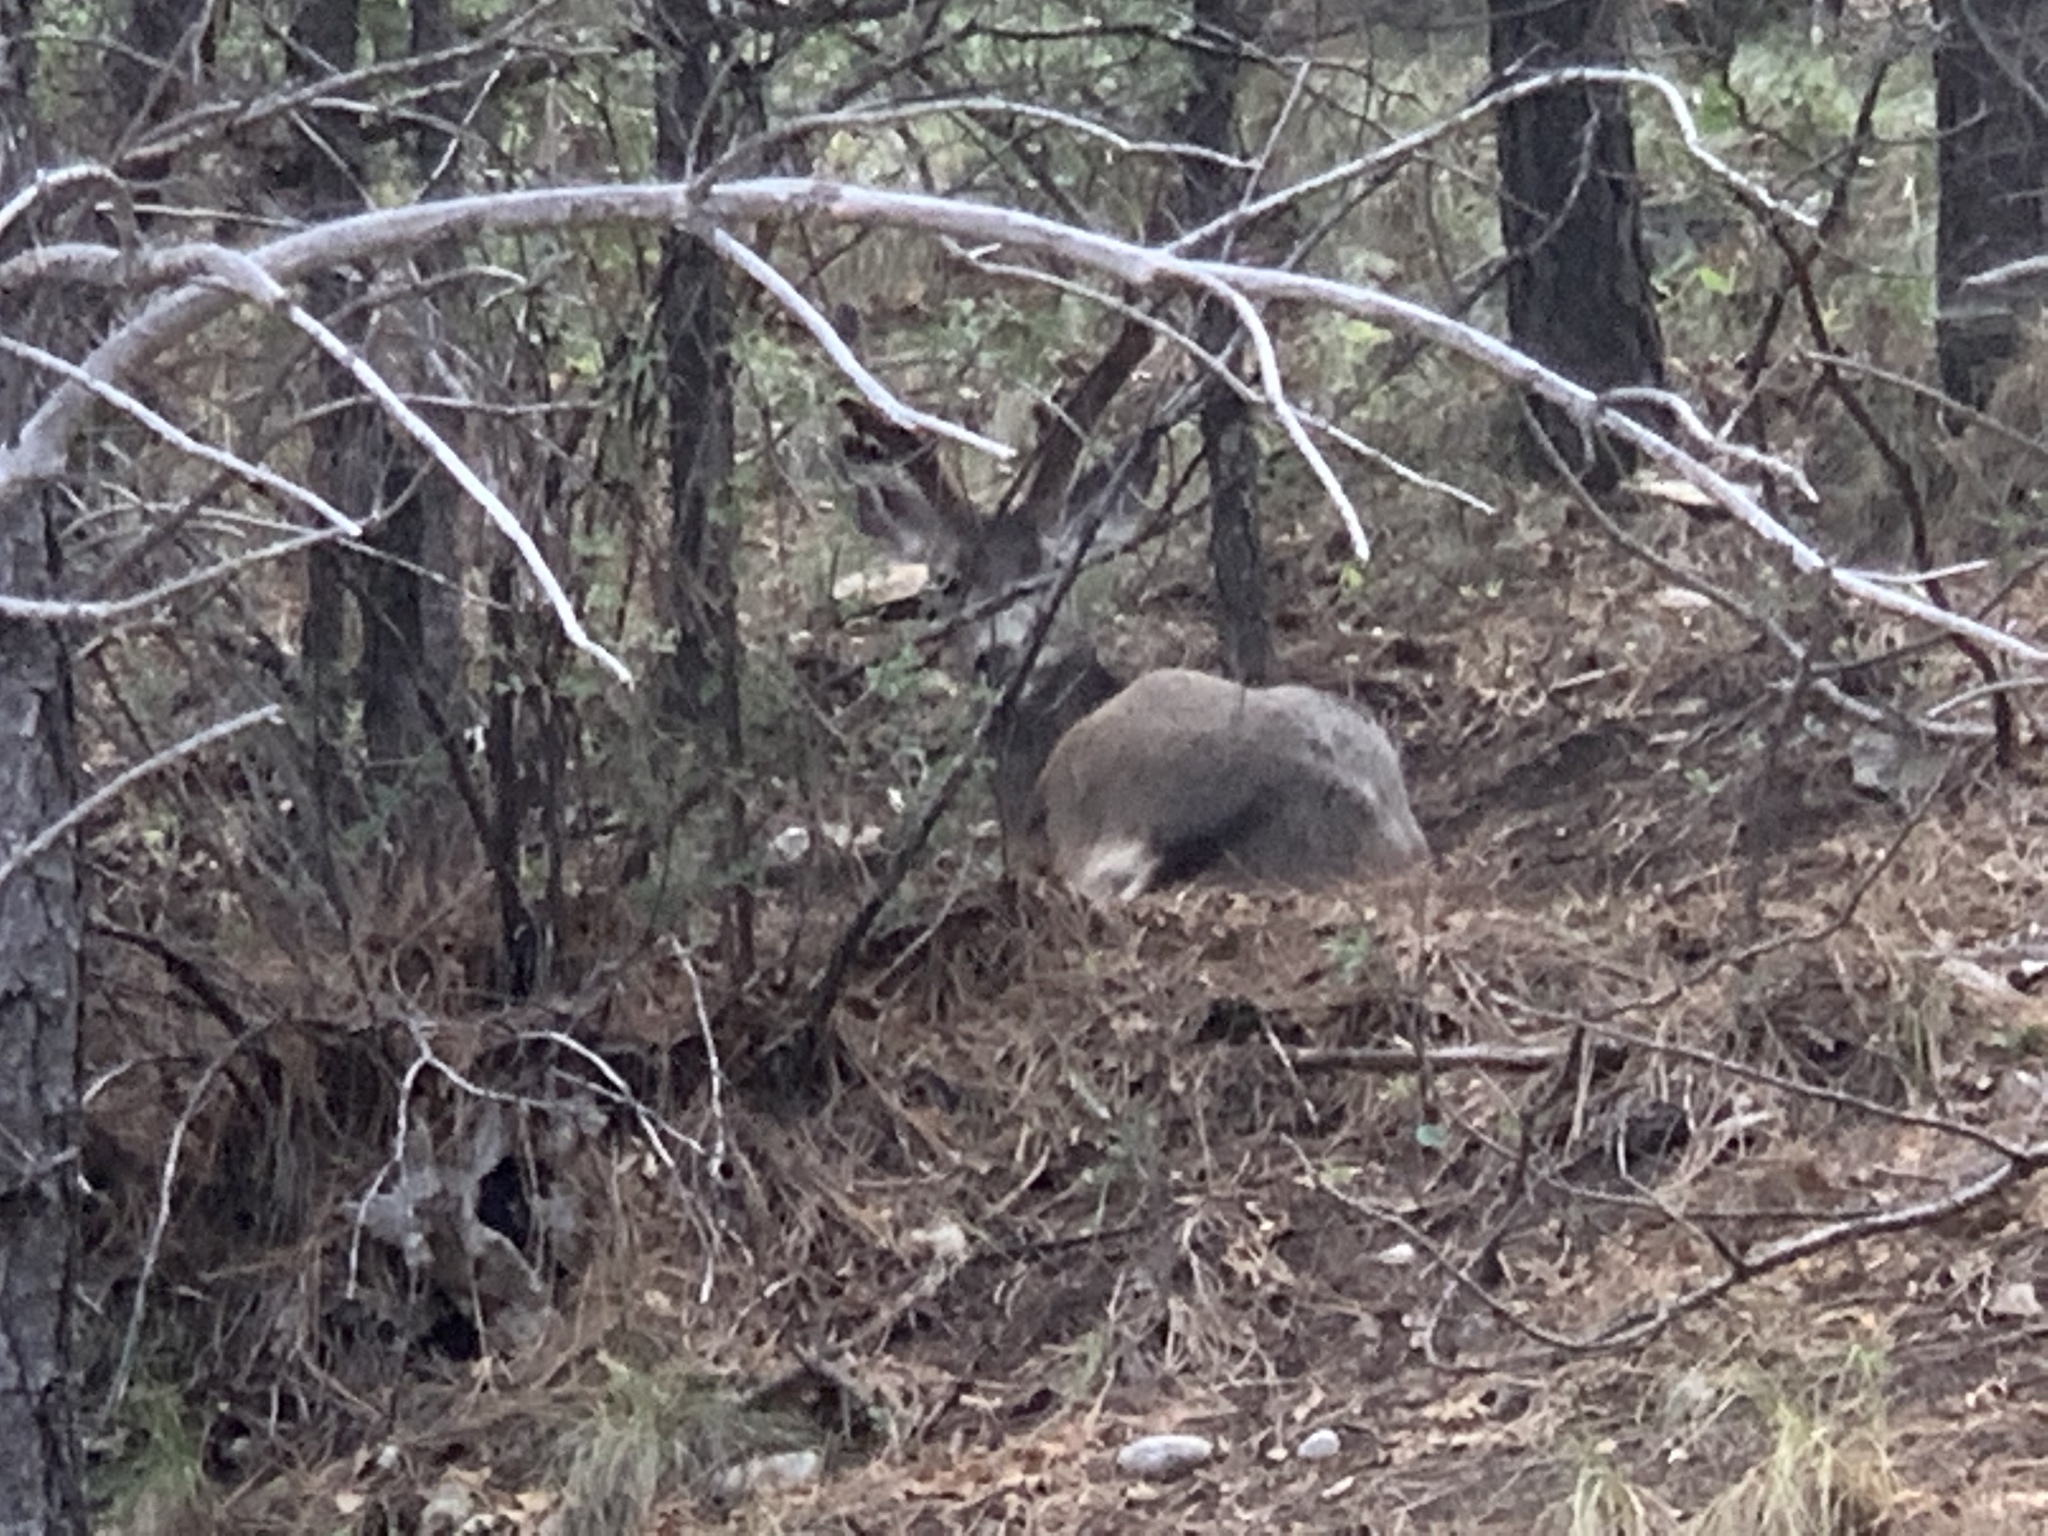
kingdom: Animalia
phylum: Chordata
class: Mammalia
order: Artiodactyla
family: Cervidae
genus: Odocoileus
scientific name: Odocoileus hemionus
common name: Mule deer
